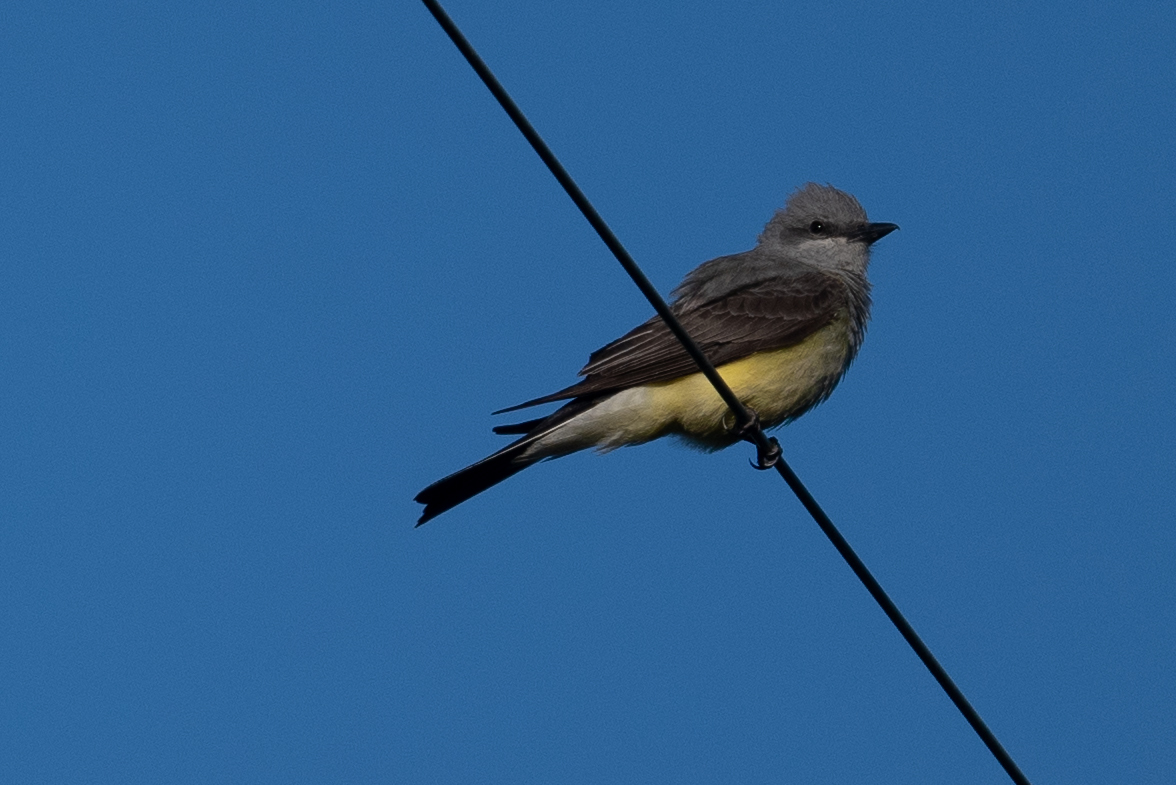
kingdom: Animalia
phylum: Chordata
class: Aves
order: Passeriformes
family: Tyrannidae
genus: Tyrannus
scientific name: Tyrannus verticalis
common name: Western kingbird
